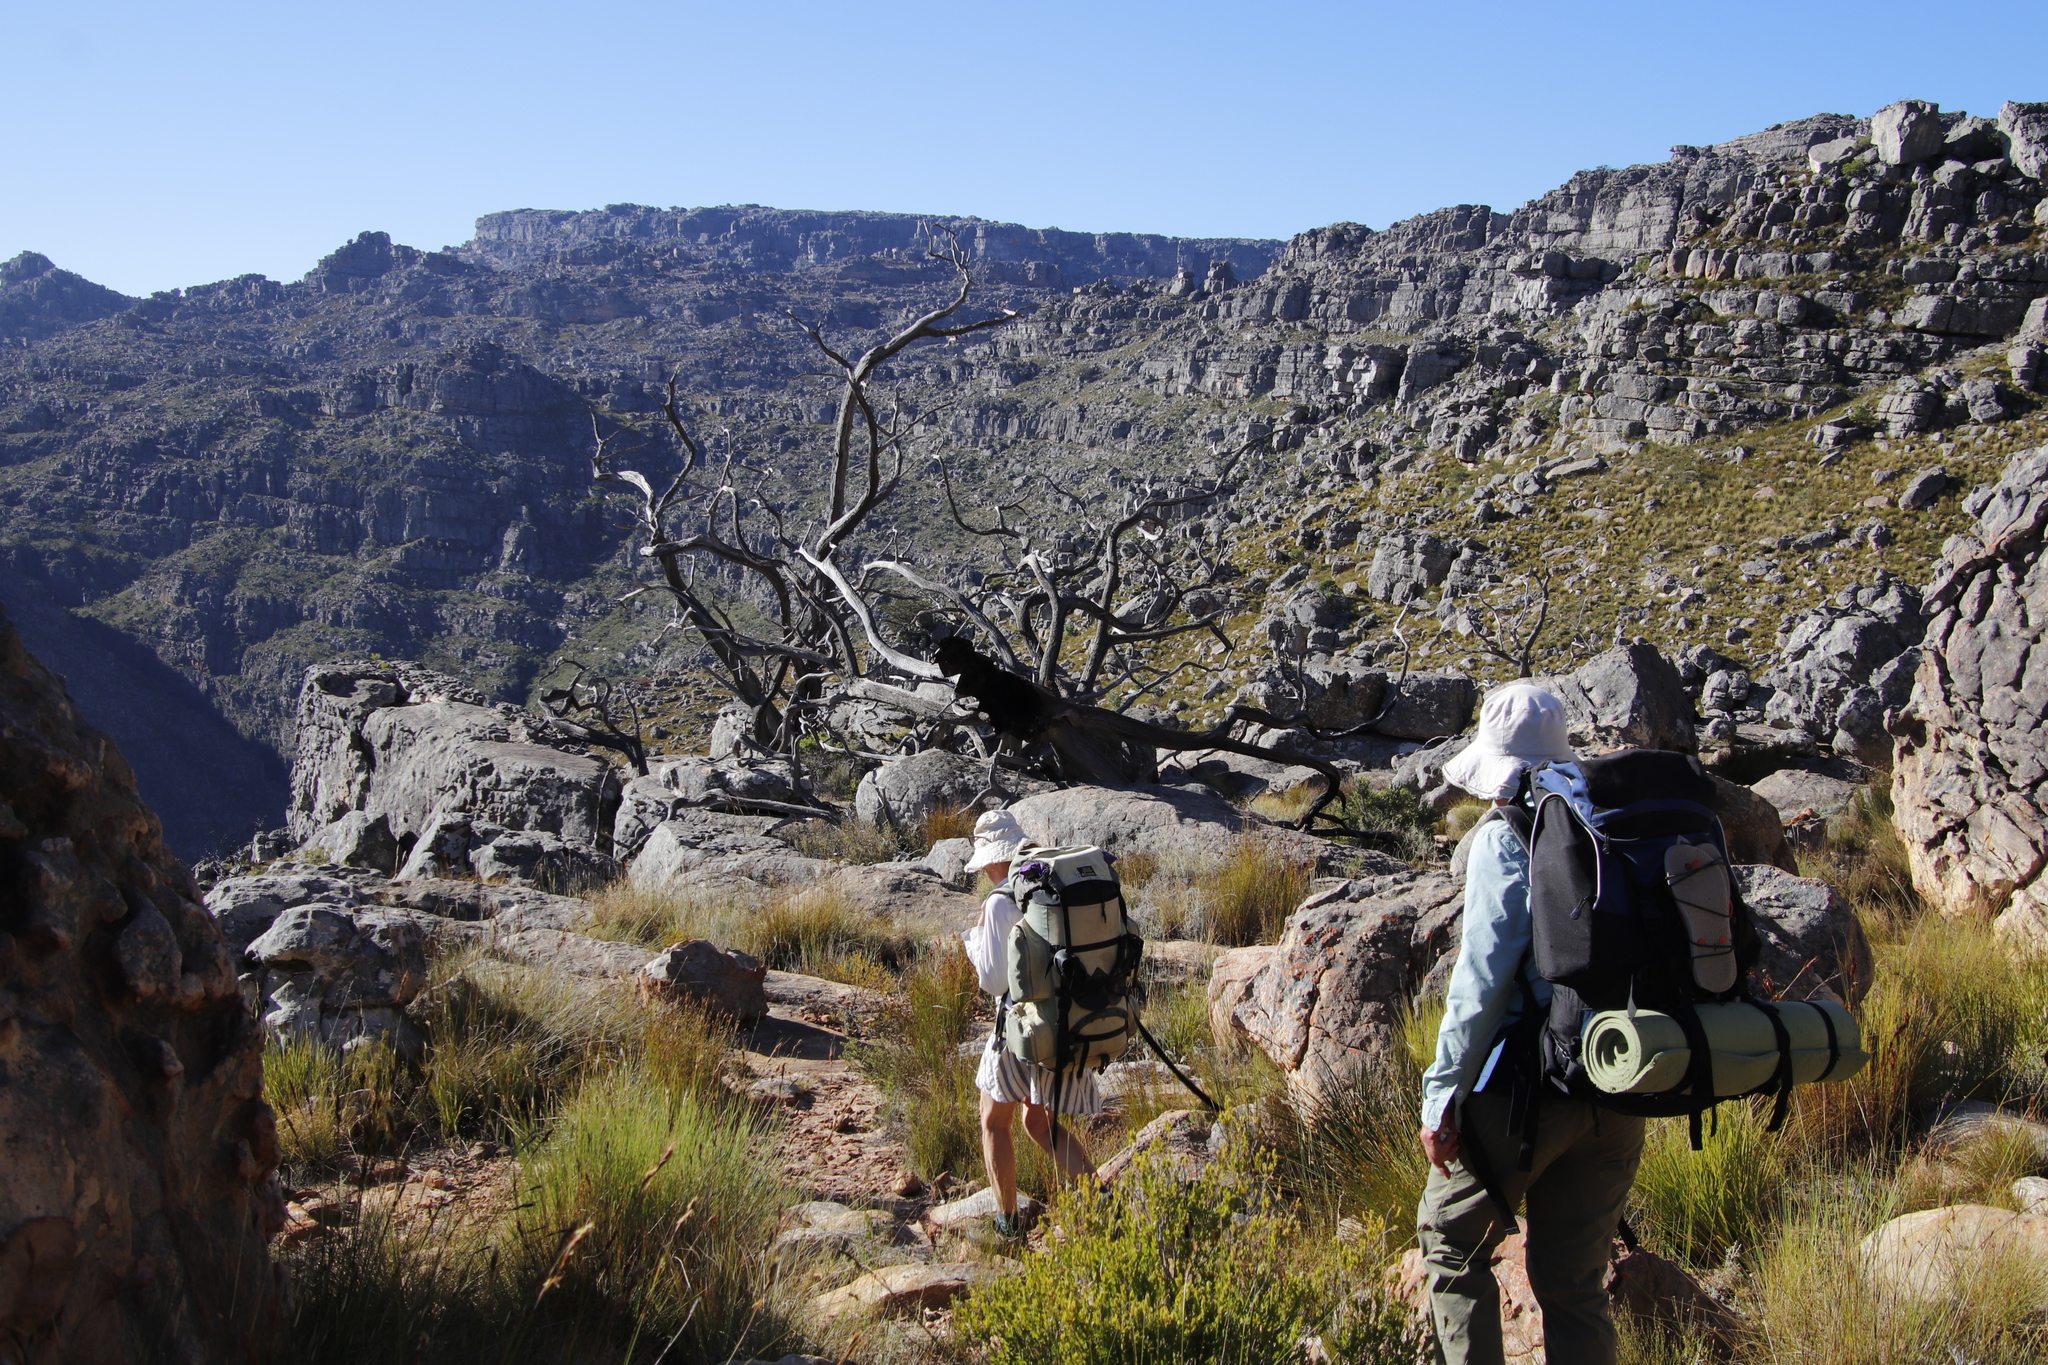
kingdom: Plantae
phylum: Tracheophyta
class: Pinopsida
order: Pinales
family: Cupressaceae
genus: Widdringtonia
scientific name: Widdringtonia nodiflora
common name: Cape cypress
